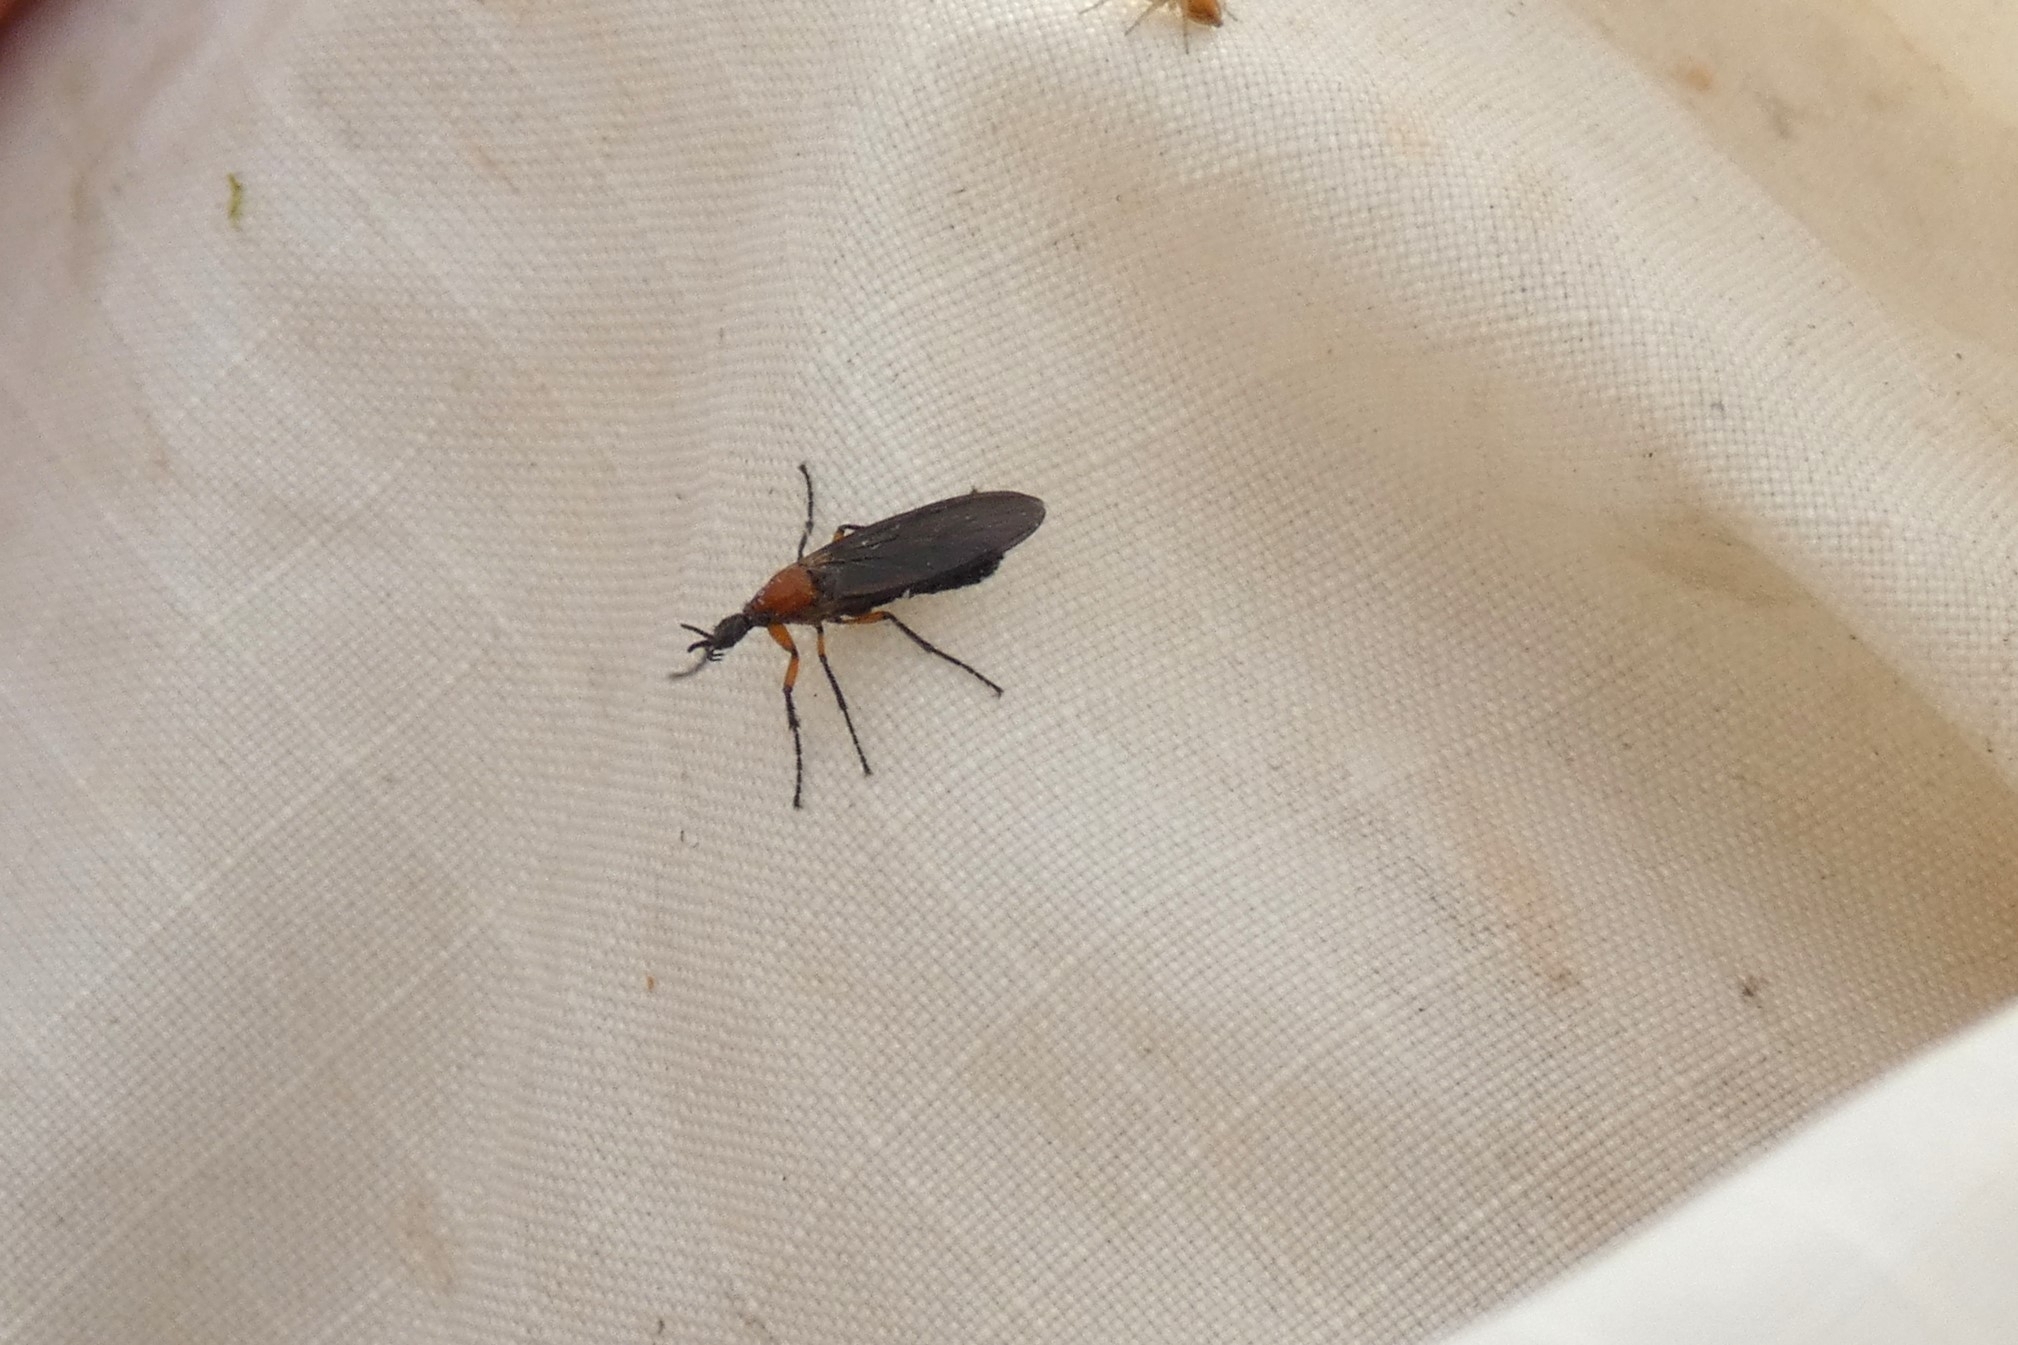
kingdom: Animalia
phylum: Arthropoda
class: Insecta
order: Diptera
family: Bibionidae
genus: Dilophus
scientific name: Dilophus serotinus
